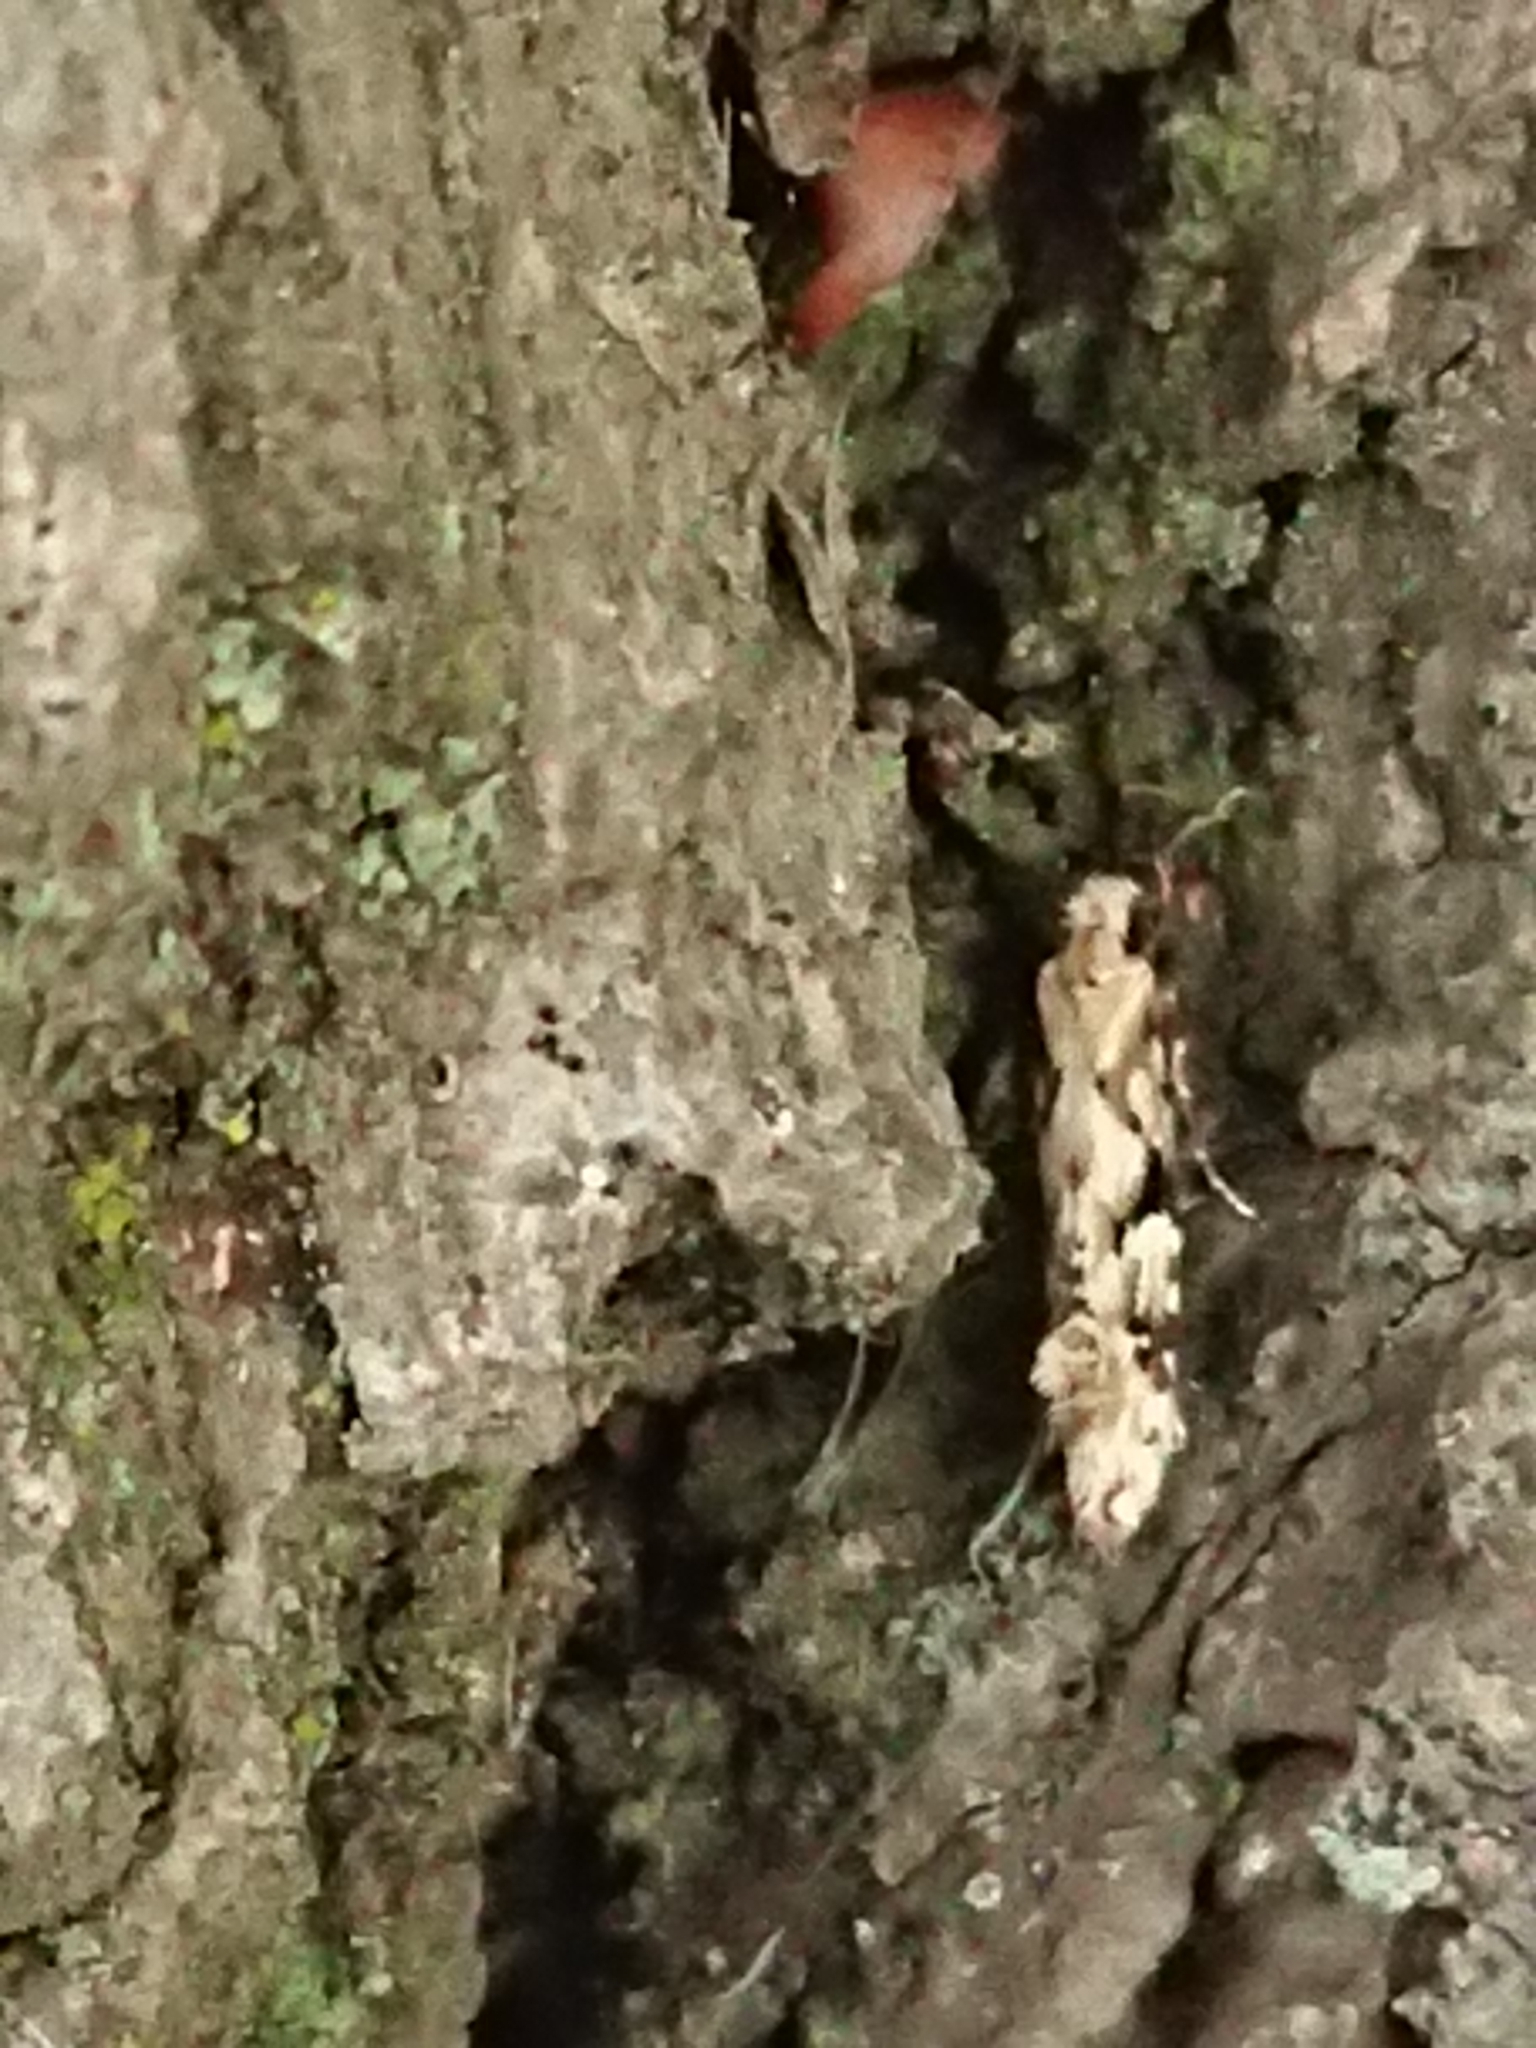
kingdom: Animalia
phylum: Arthropoda
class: Insecta
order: Lepidoptera
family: Tineidae
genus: Crypsitricha
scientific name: Crypsitricha mesotypa
